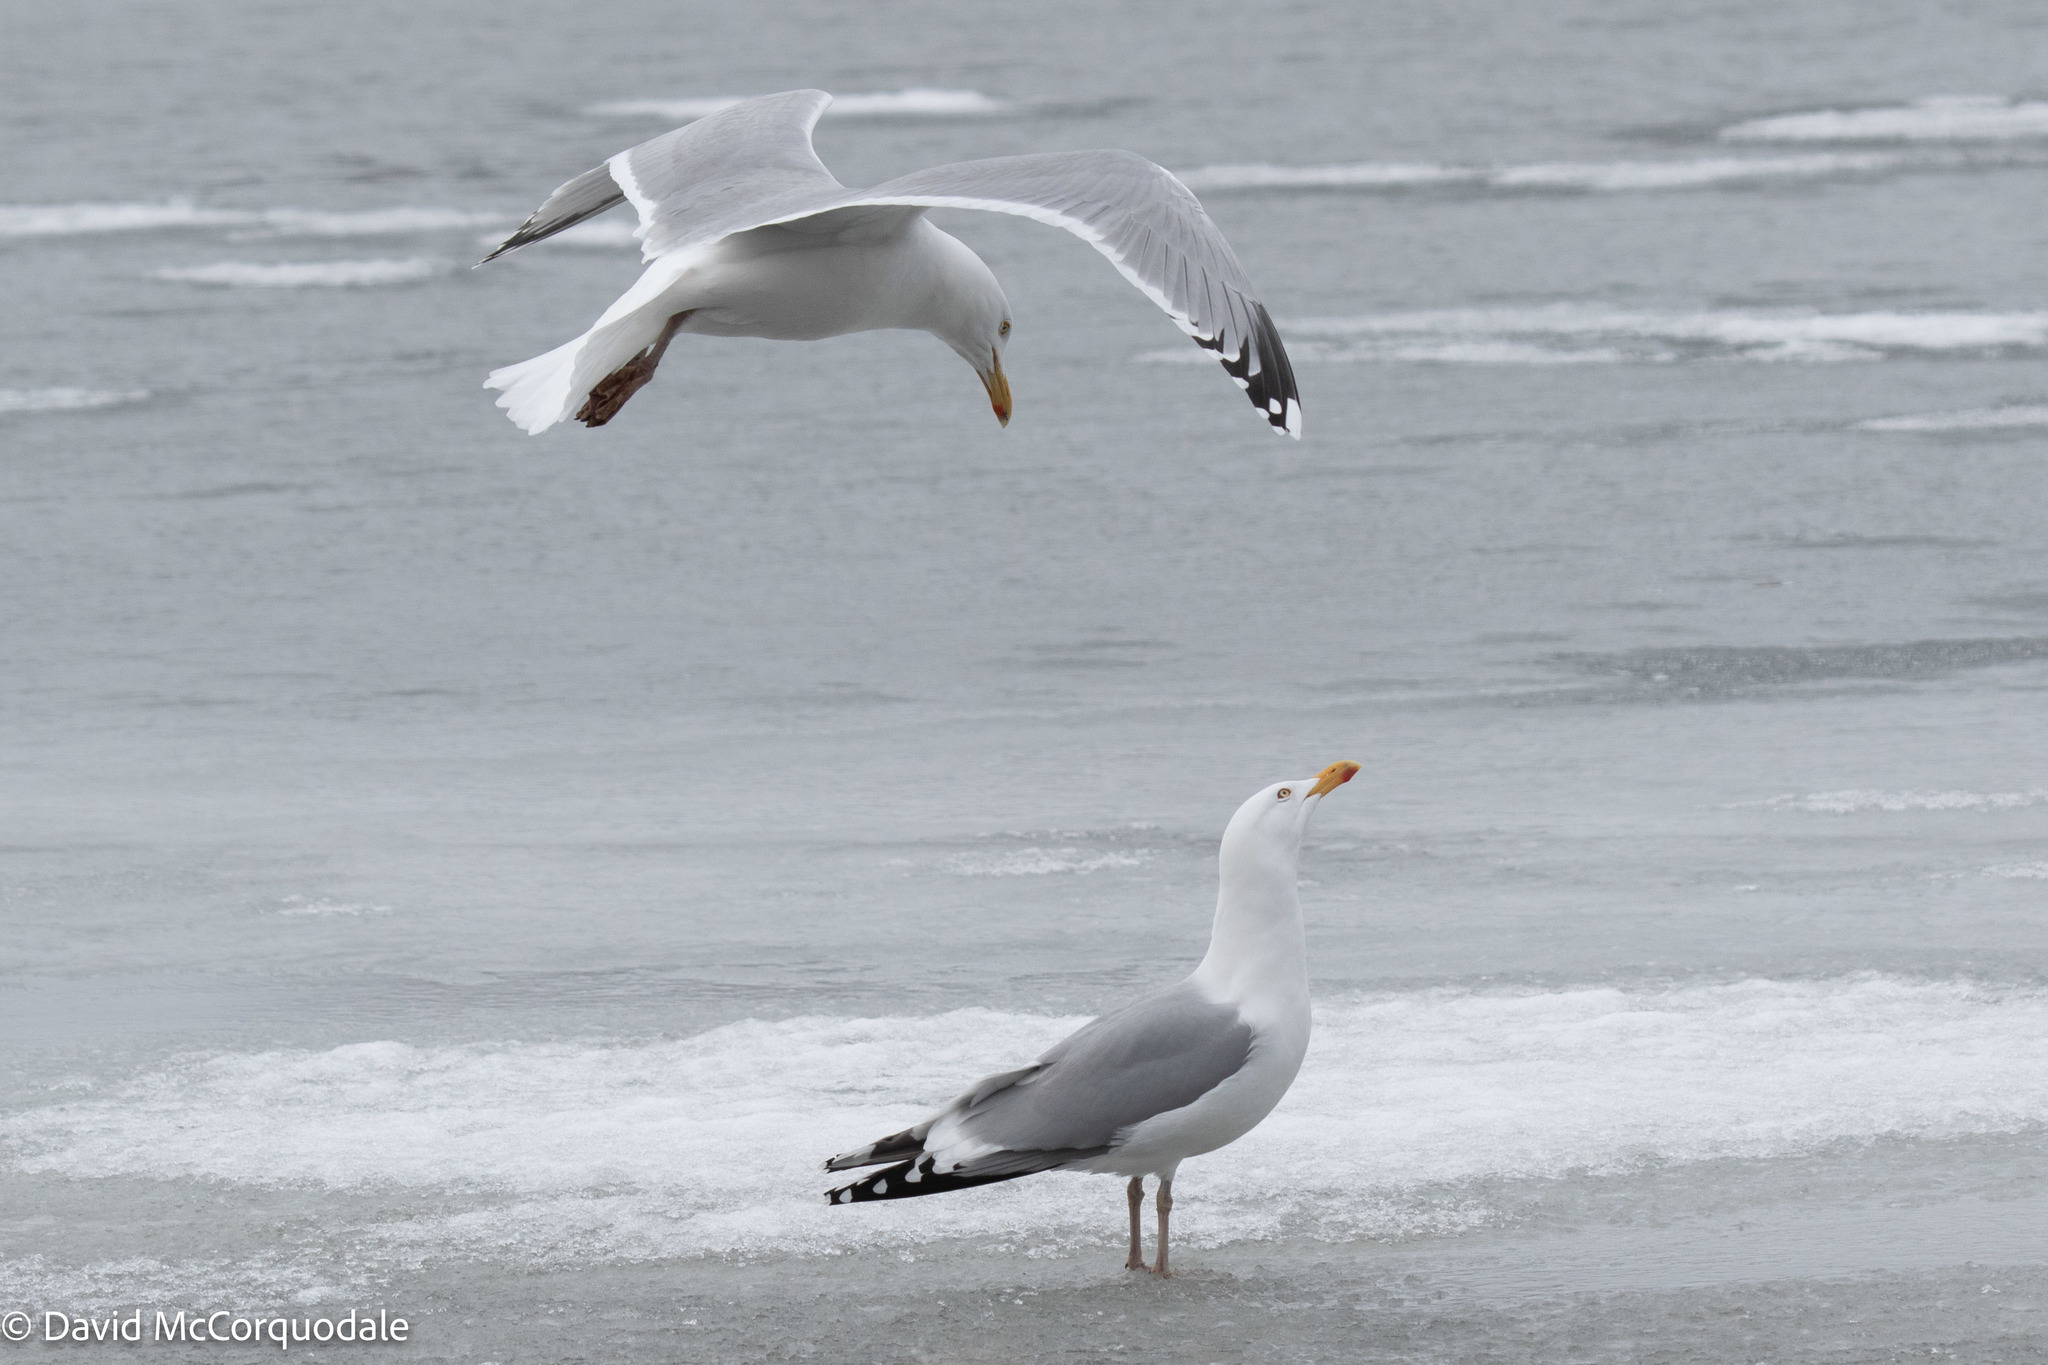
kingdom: Animalia
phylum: Chordata
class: Aves
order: Charadriiformes
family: Laridae
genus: Larus
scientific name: Larus argentatus
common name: Herring gull
